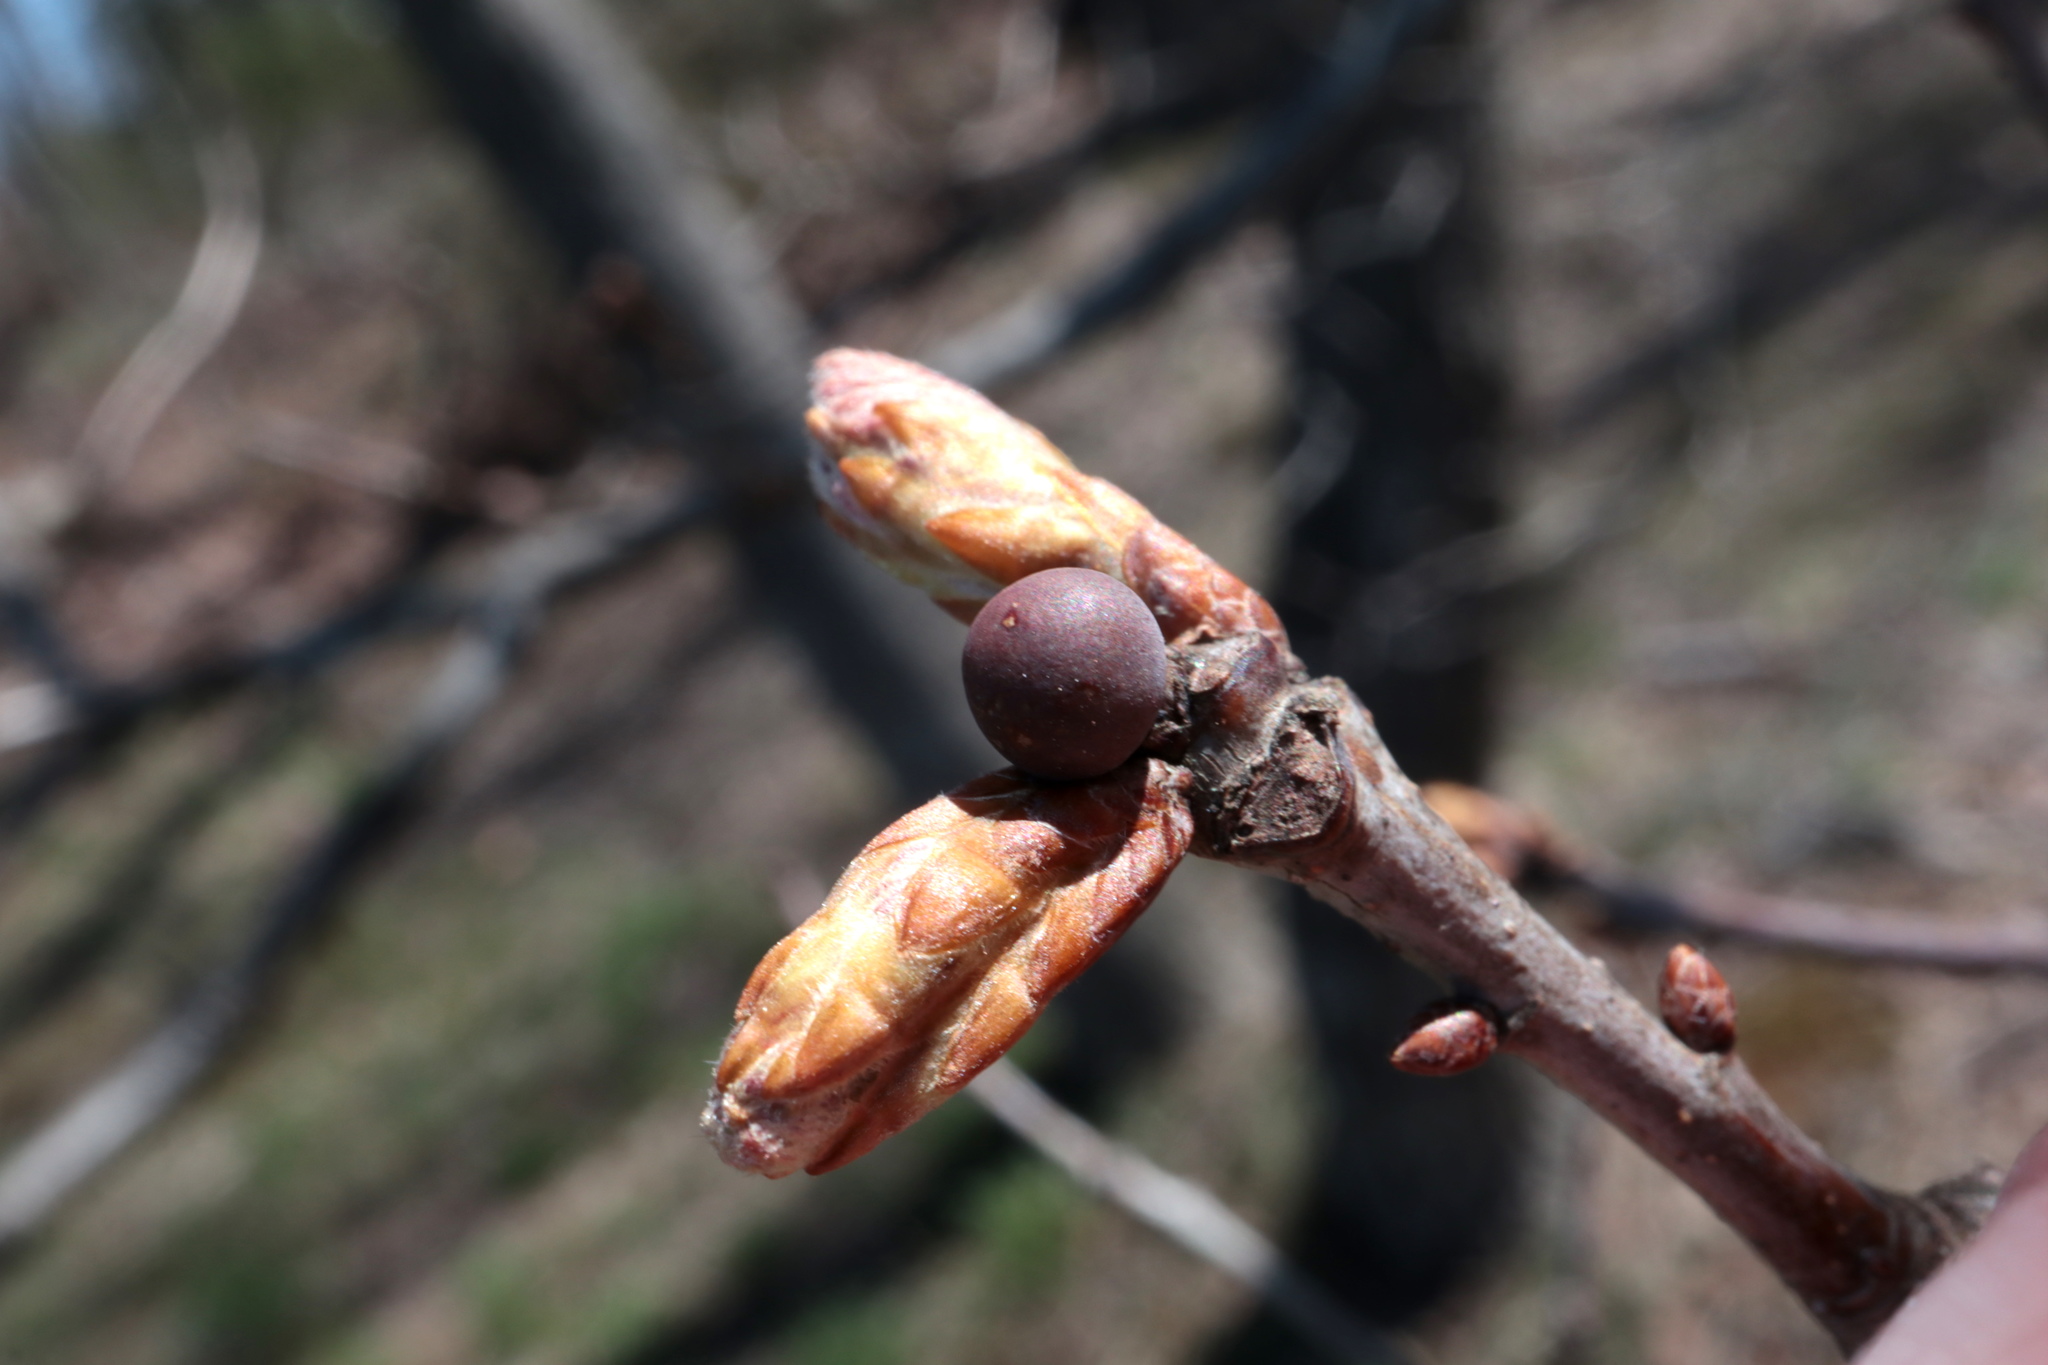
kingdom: Animalia
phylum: Arthropoda
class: Insecta
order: Hymenoptera
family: Cynipidae
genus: Neuroterus
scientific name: Neuroterus
